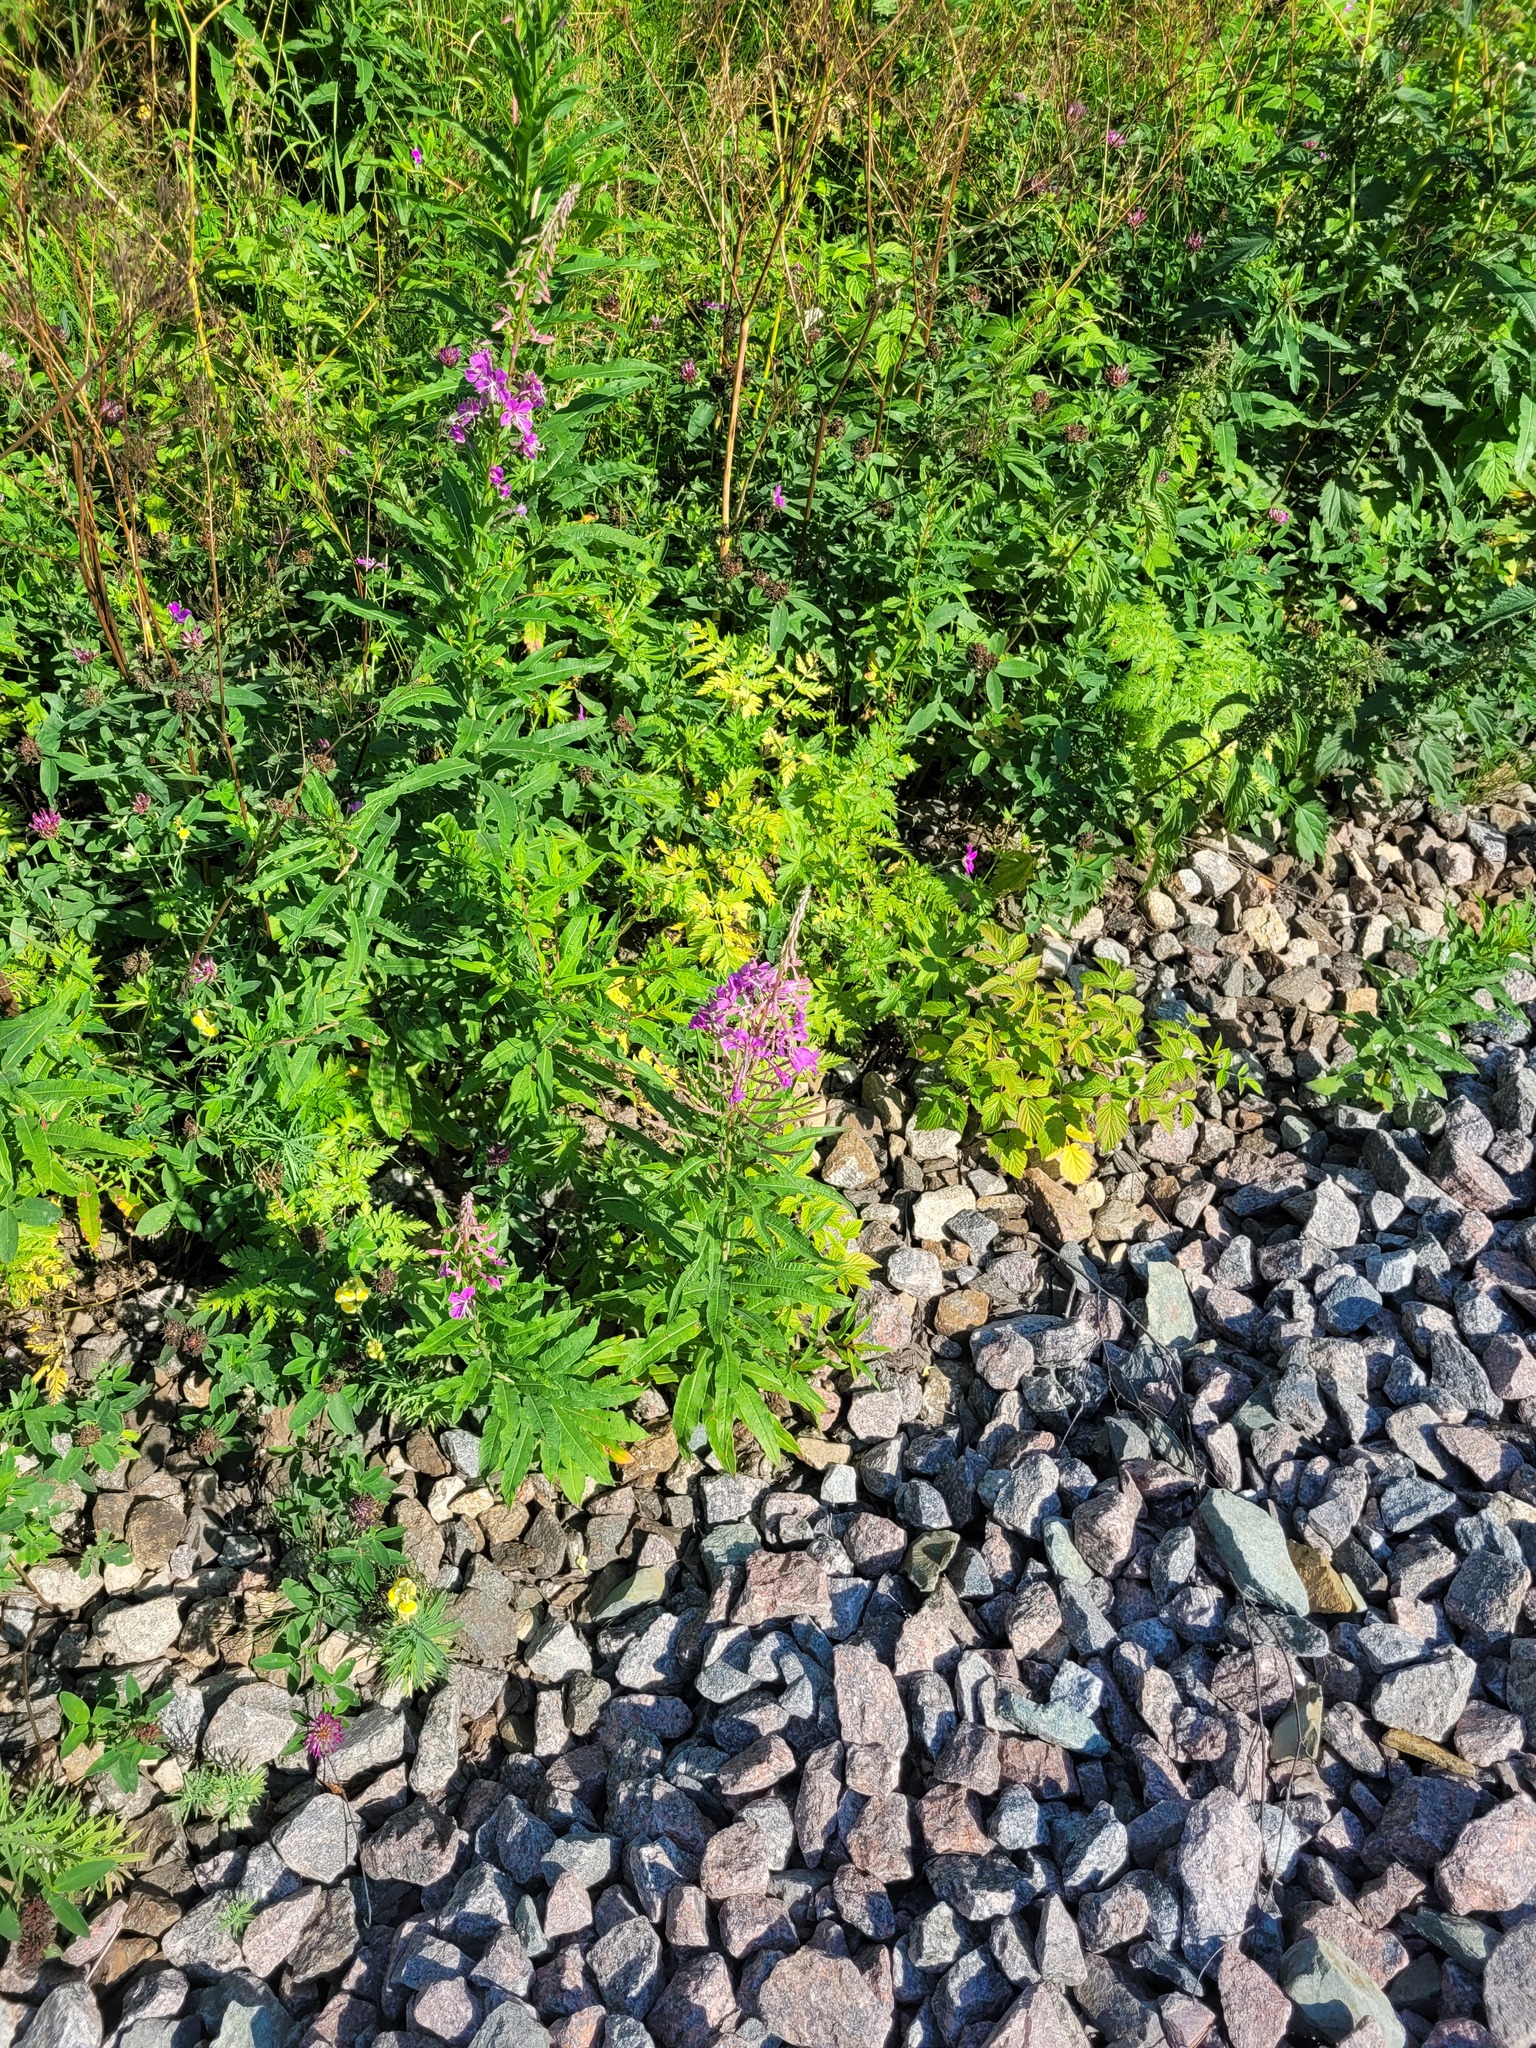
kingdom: Plantae
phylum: Tracheophyta
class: Magnoliopsida
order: Myrtales
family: Onagraceae
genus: Chamaenerion
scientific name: Chamaenerion angustifolium
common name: Fireweed
